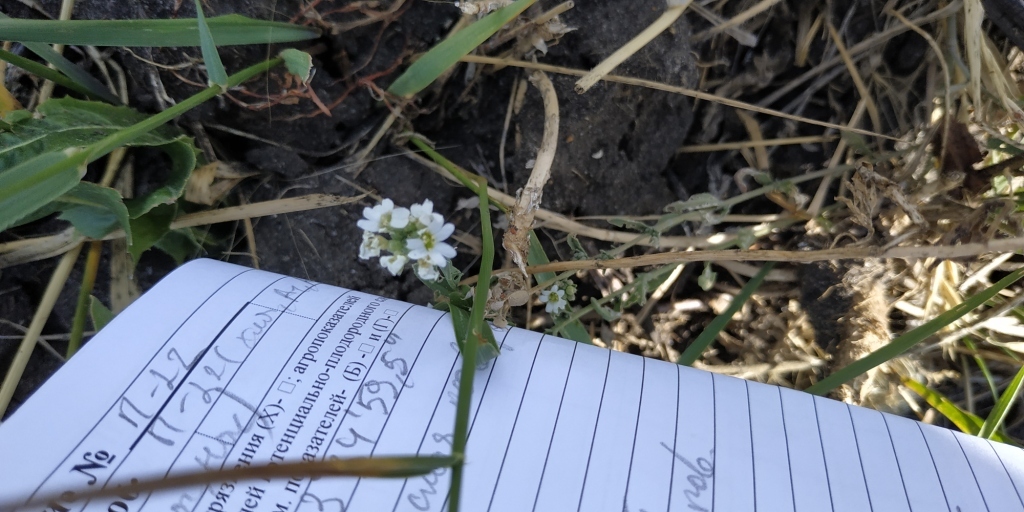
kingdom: Plantae
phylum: Tracheophyta
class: Magnoliopsida
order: Brassicales
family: Brassicaceae
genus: Berteroa
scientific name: Berteroa incana
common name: Hoary alison
